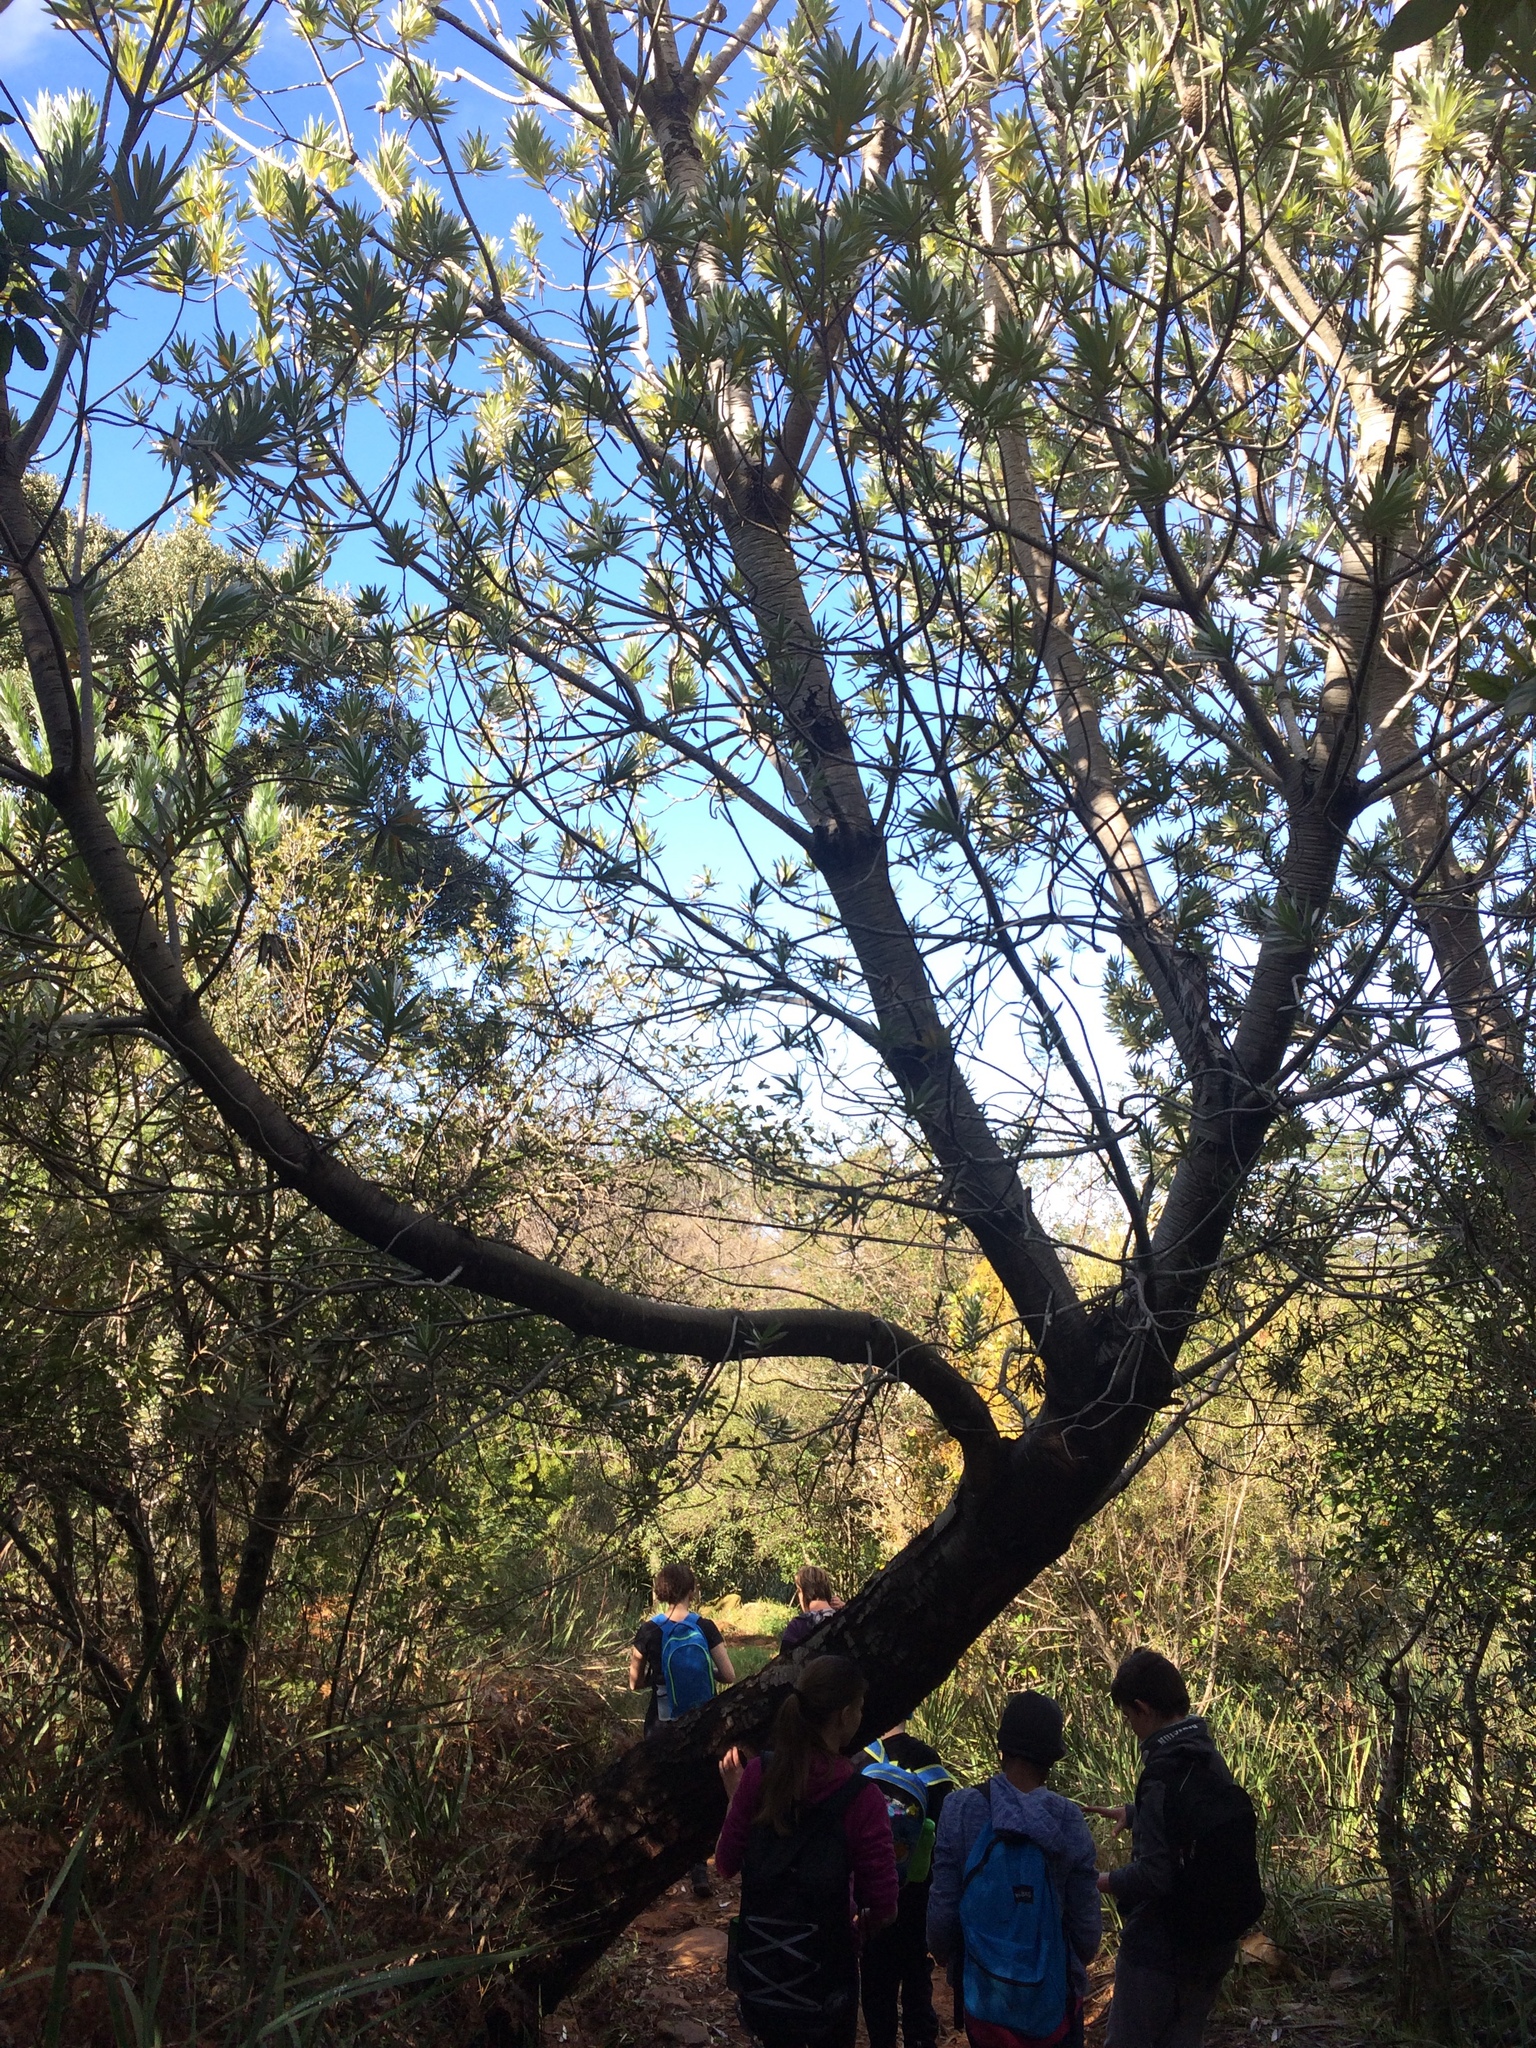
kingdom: Plantae
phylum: Tracheophyta
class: Magnoliopsida
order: Proteales
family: Proteaceae
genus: Leucadendron
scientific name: Leucadendron argenteum
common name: Cape silver tree
